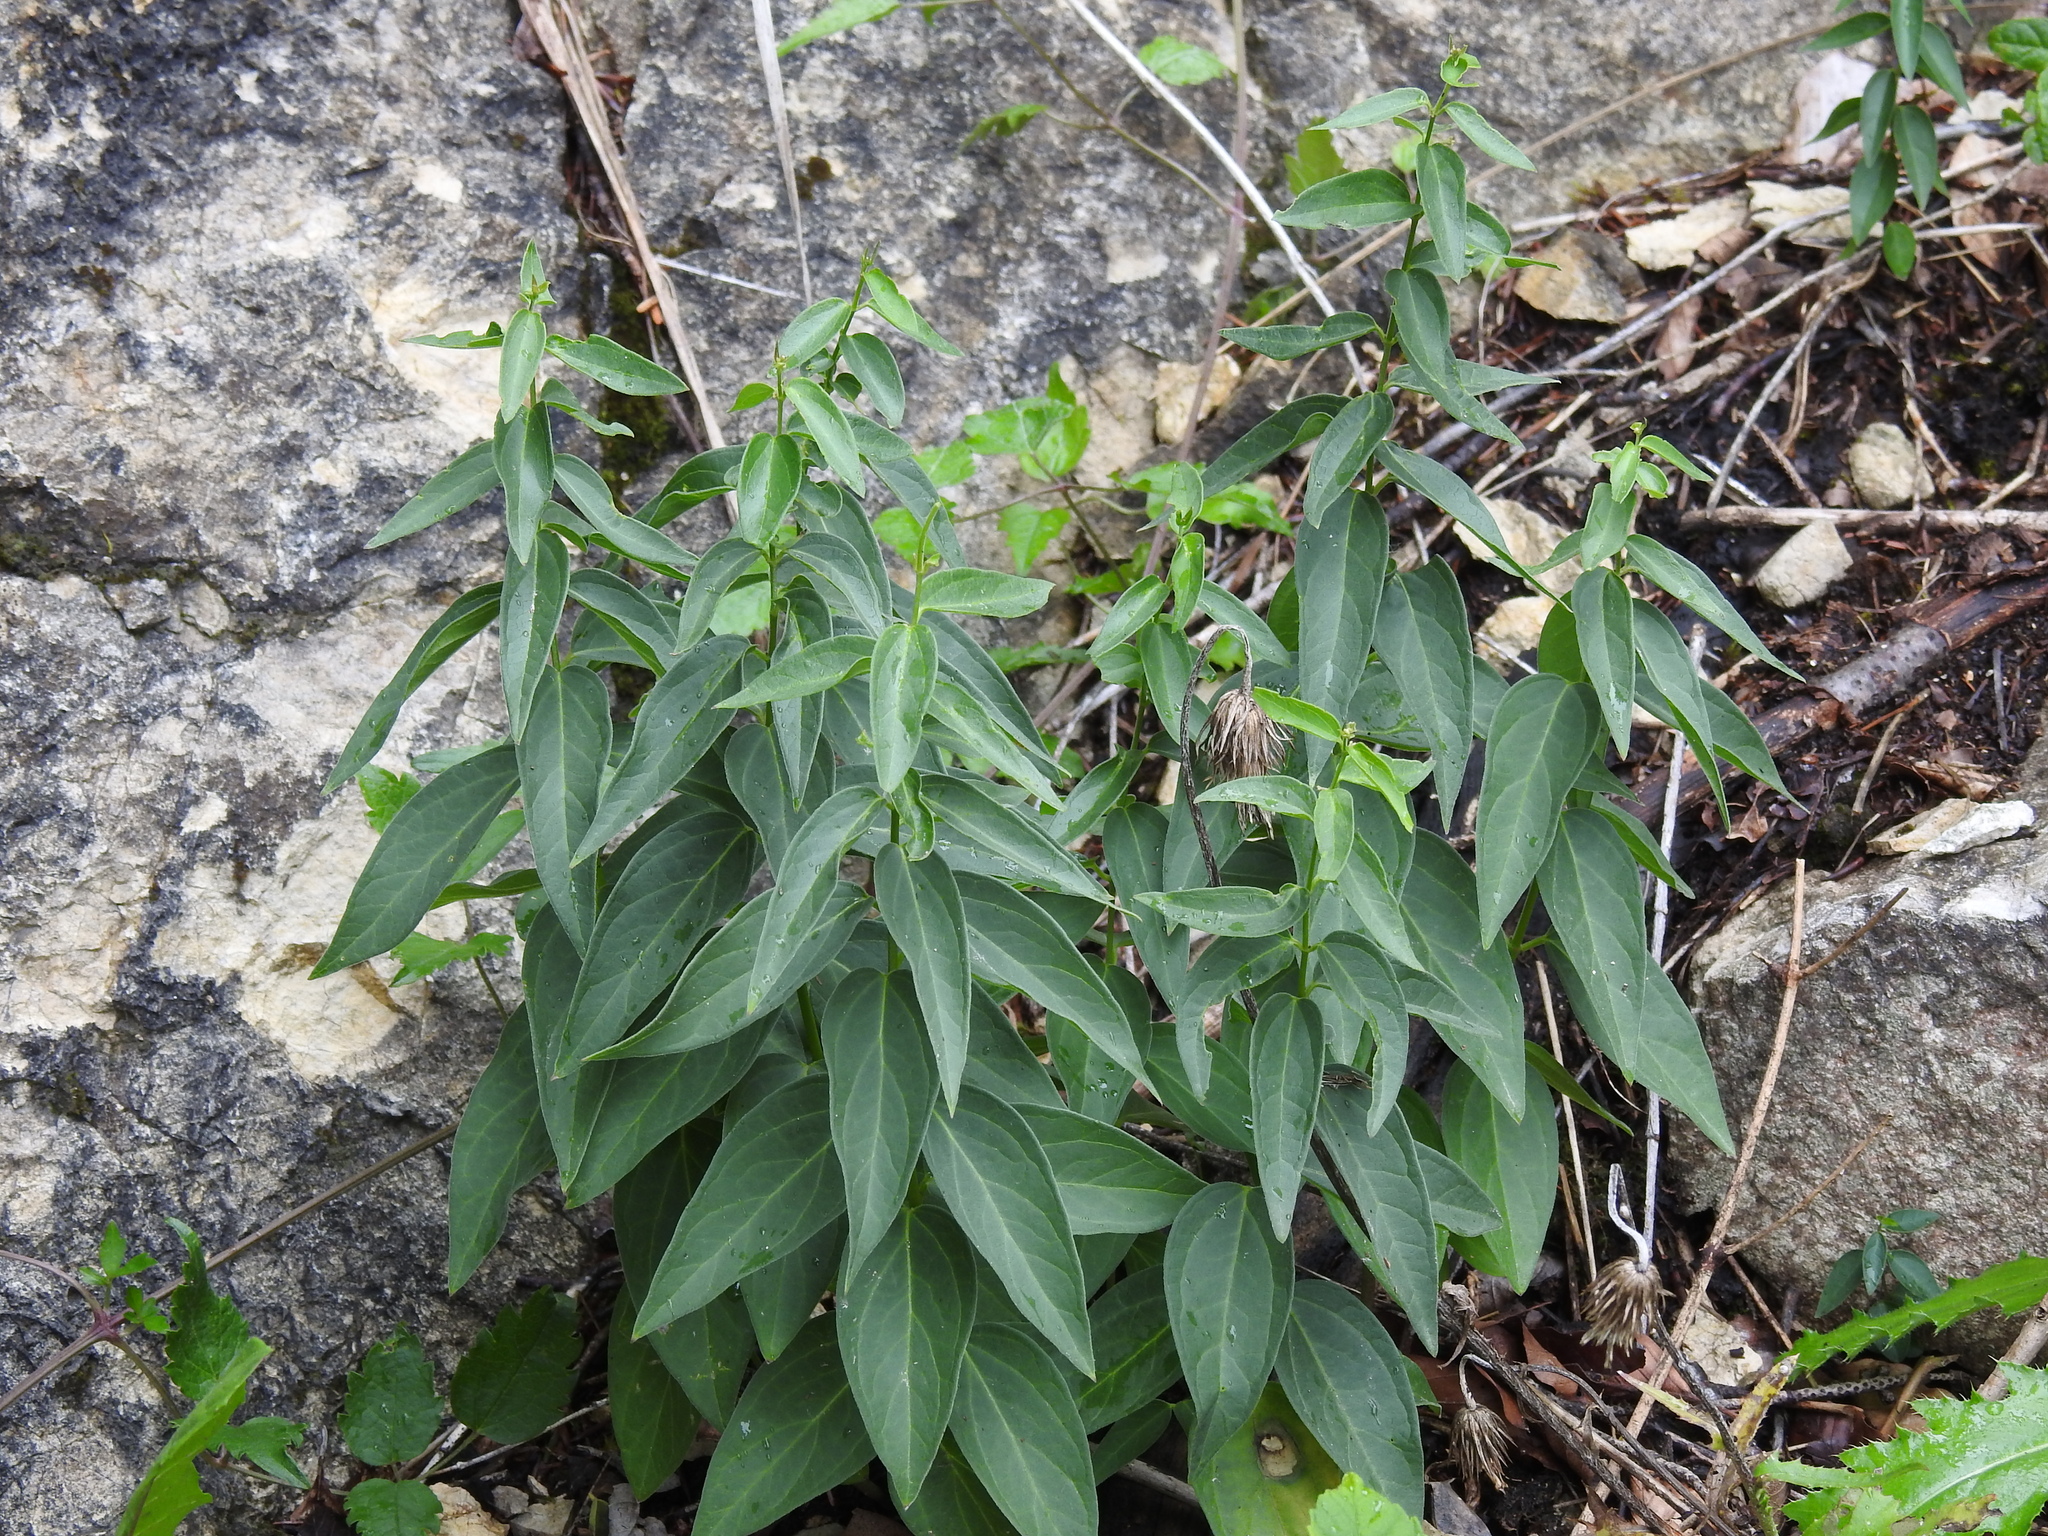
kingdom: Plantae
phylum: Tracheophyta
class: Magnoliopsida
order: Gentianales
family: Apocynaceae
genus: Vincetoxicum
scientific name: Vincetoxicum hirundinaria
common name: White swallowwort
